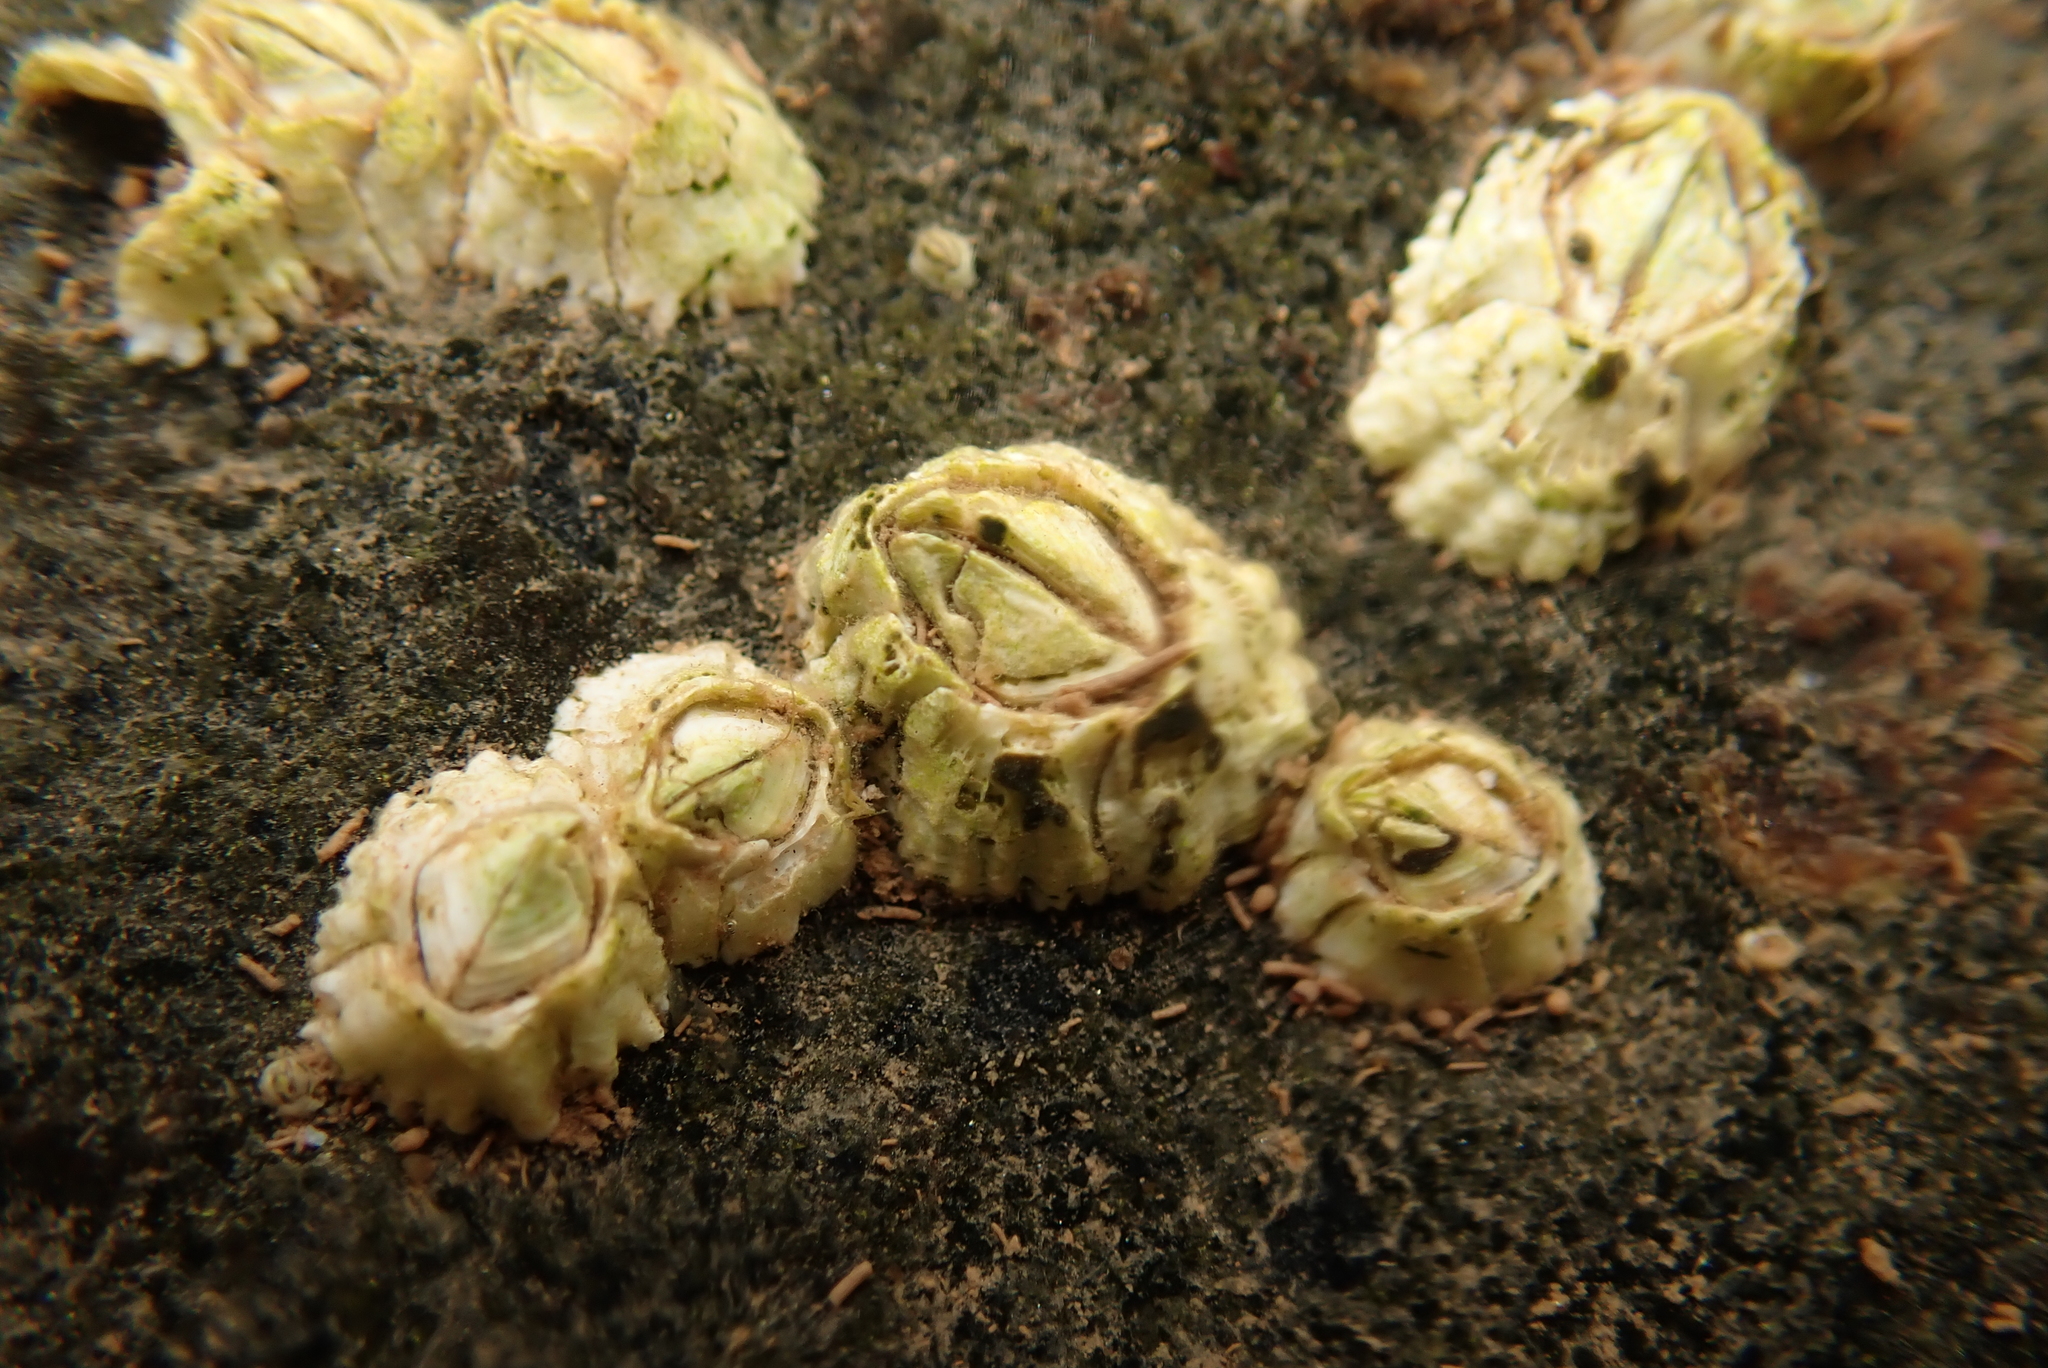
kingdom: Animalia
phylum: Arthropoda
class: Maxillopoda
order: Sessilia
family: Archaeobalanidae
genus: Semibalanus
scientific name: Semibalanus balanoides
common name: Acorn barnacle
